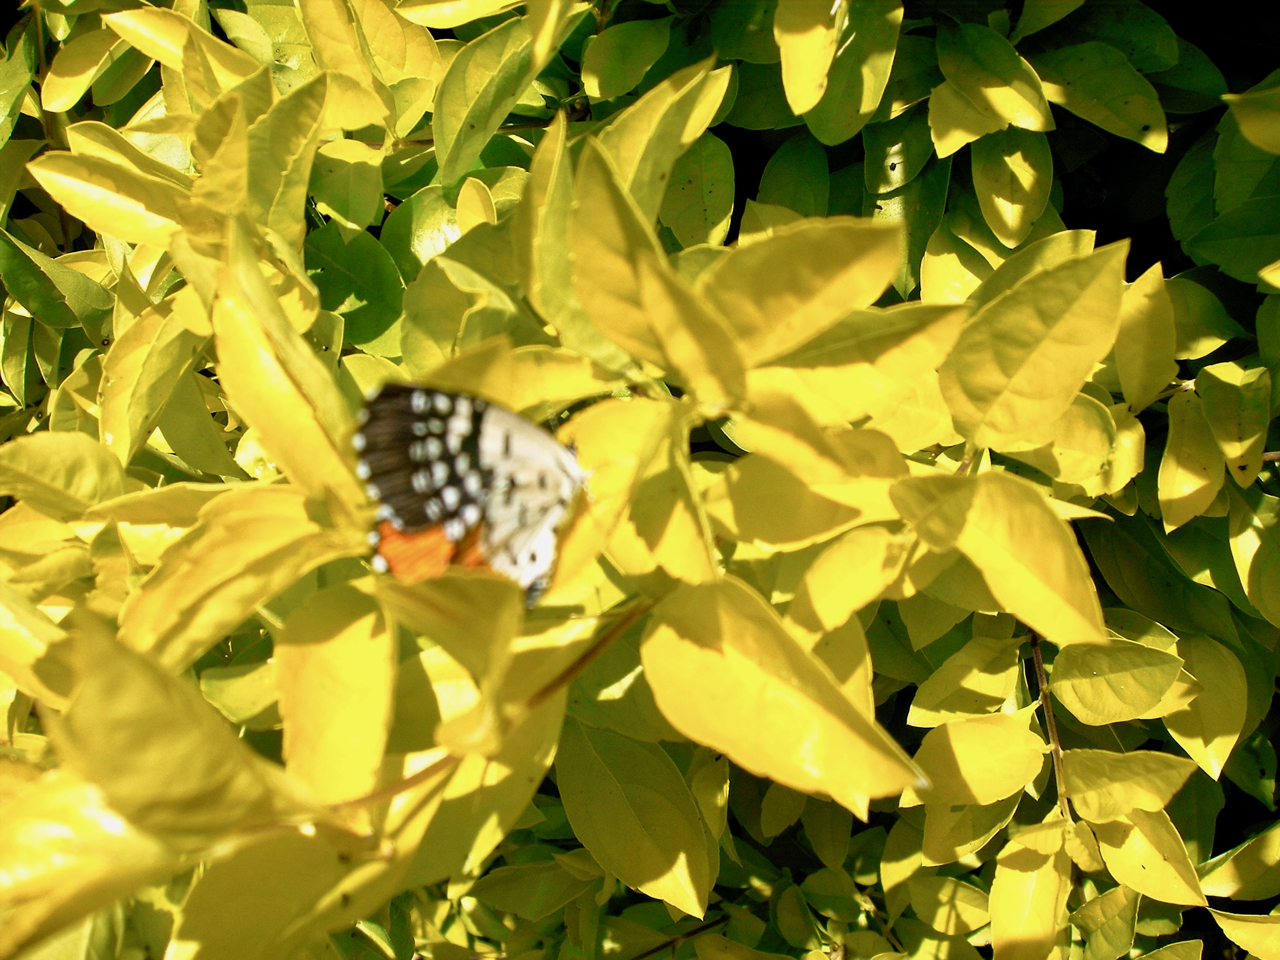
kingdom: Animalia
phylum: Arthropoda
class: Insecta
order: Lepidoptera
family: Lycaenidae
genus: Talicada
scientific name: Talicada nyseus
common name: Red pierrot
